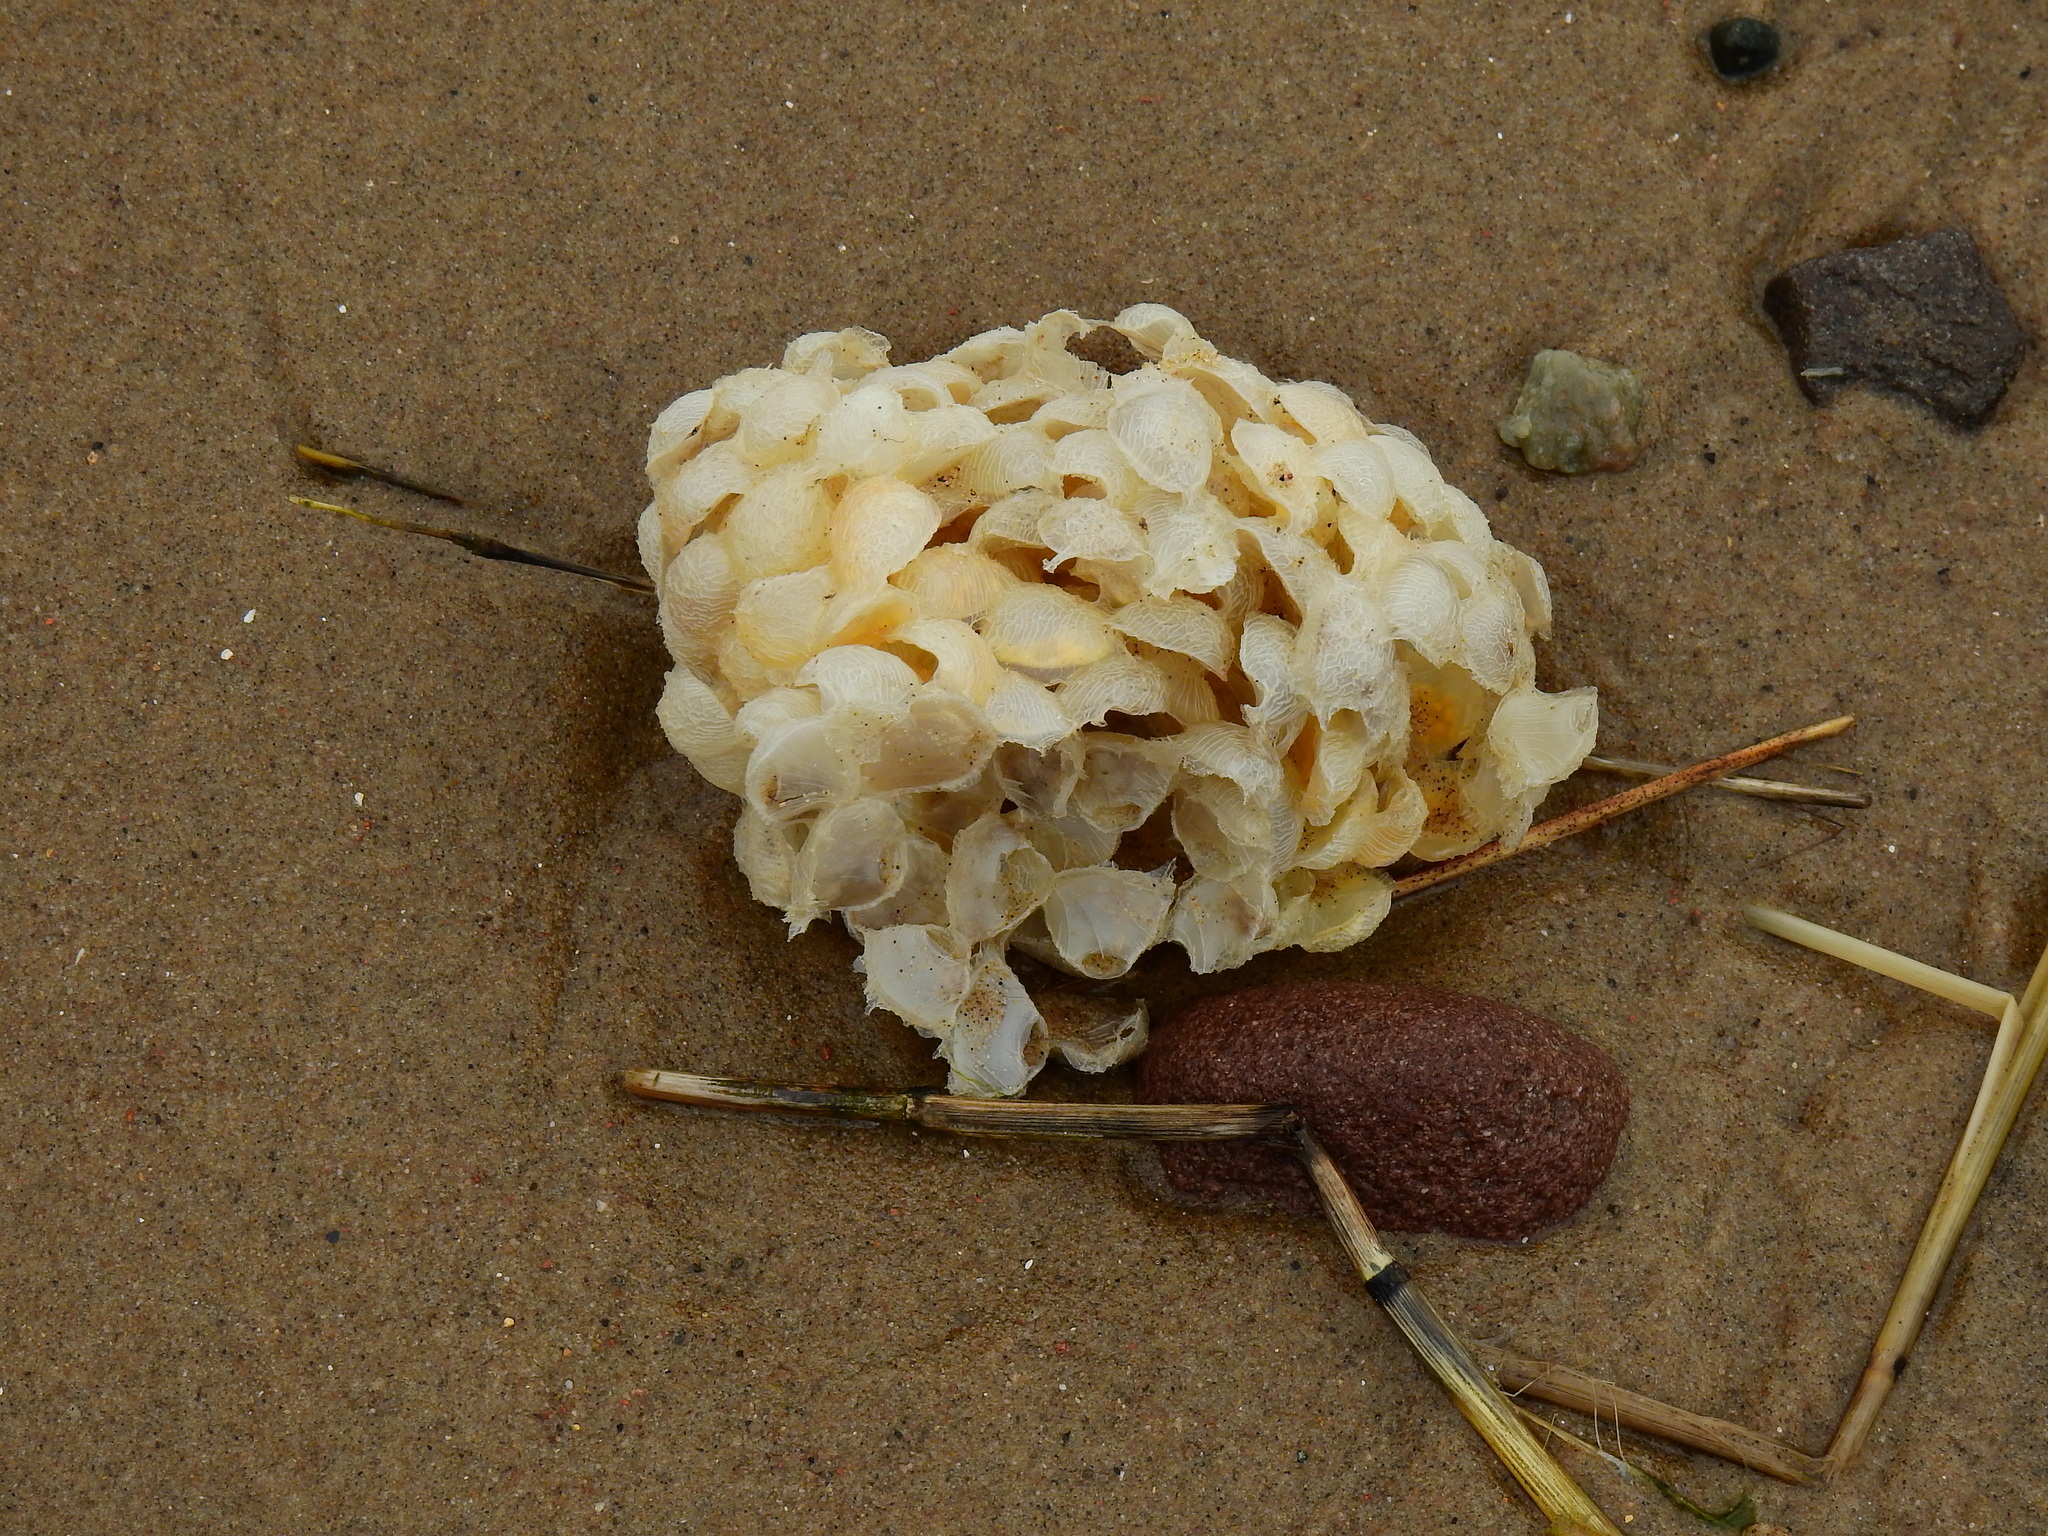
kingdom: Animalia
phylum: Mollusca
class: Gastropoda
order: Neogastropoda
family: Buccinidae
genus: Buccinum
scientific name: Buccinum undatum
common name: Common whelk
